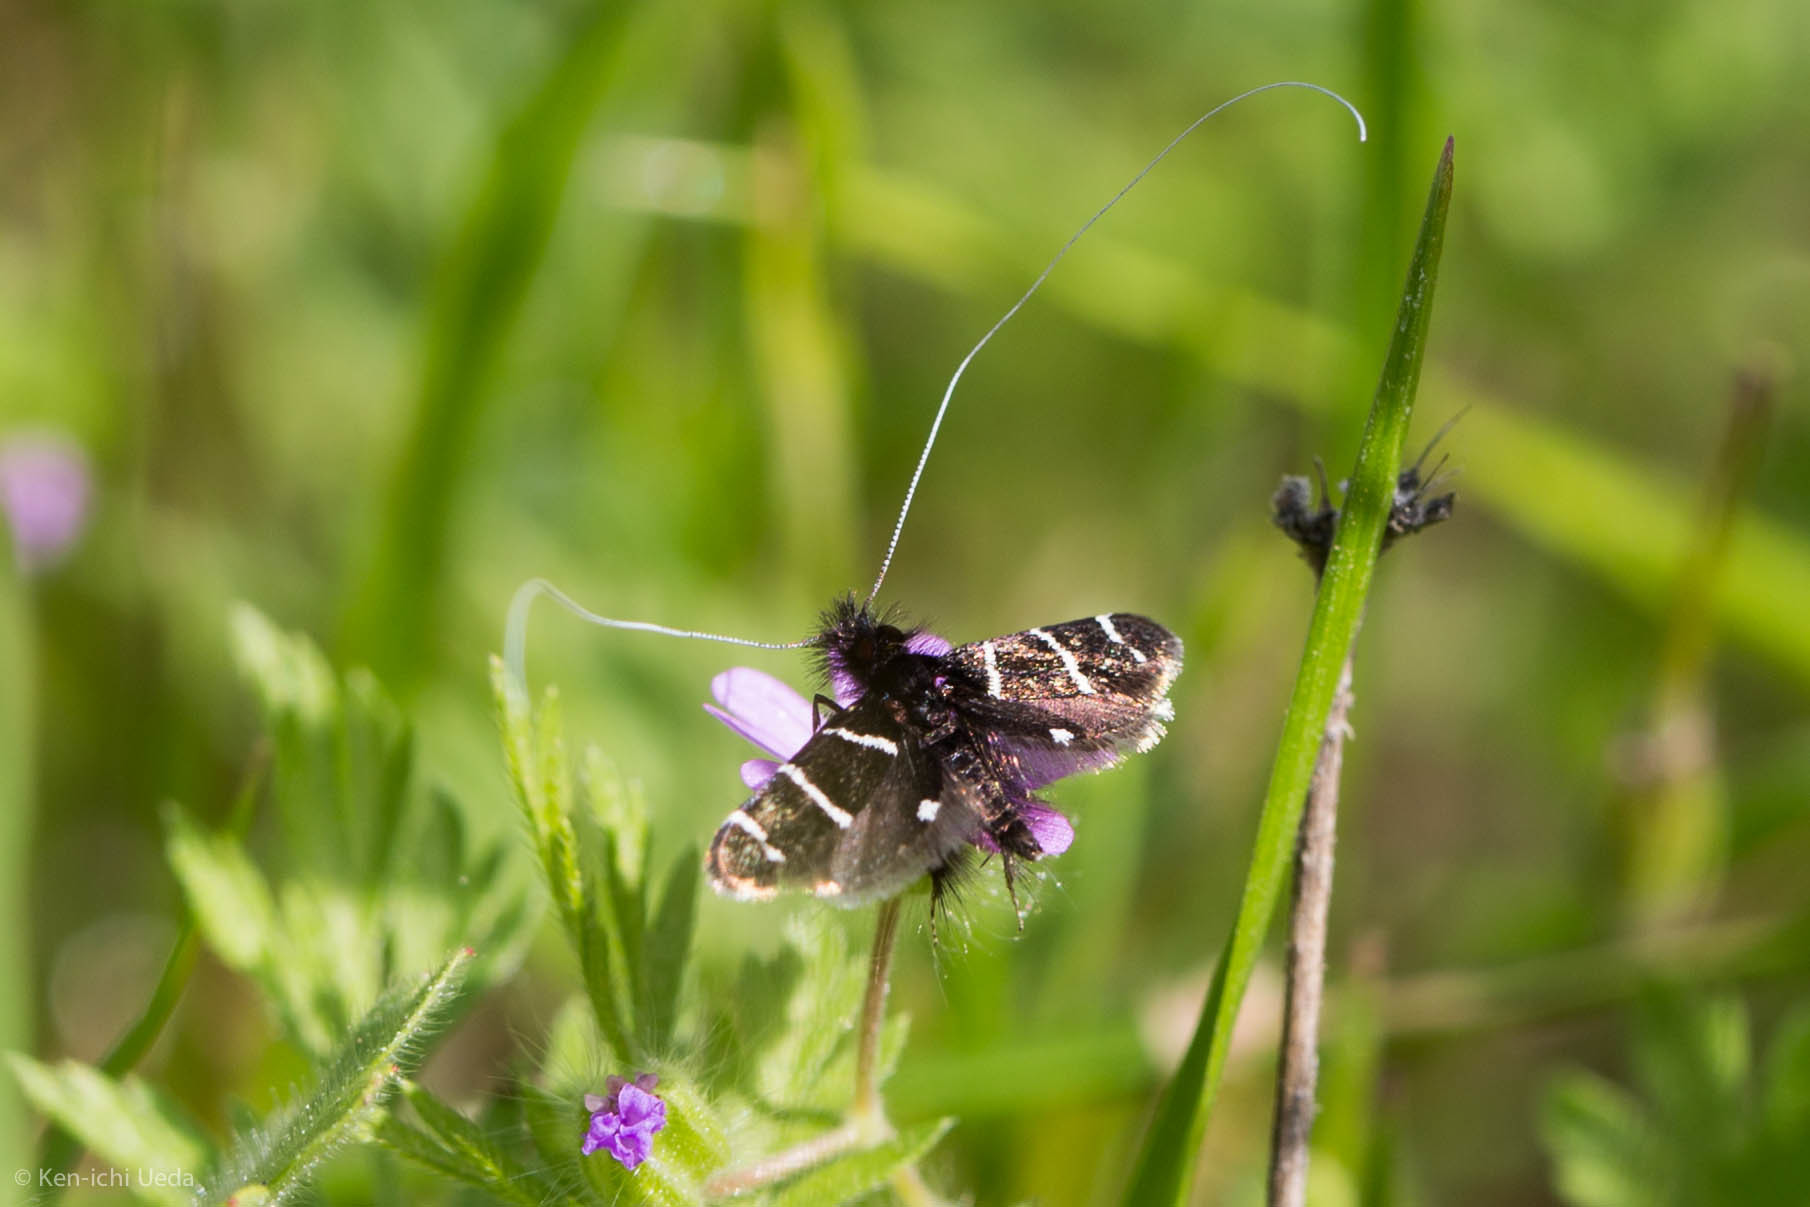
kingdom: Animalia
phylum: Arthropoda
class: Insecta
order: Lepidoptera
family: Adelidae
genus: Adela
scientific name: Adela trigrapha
